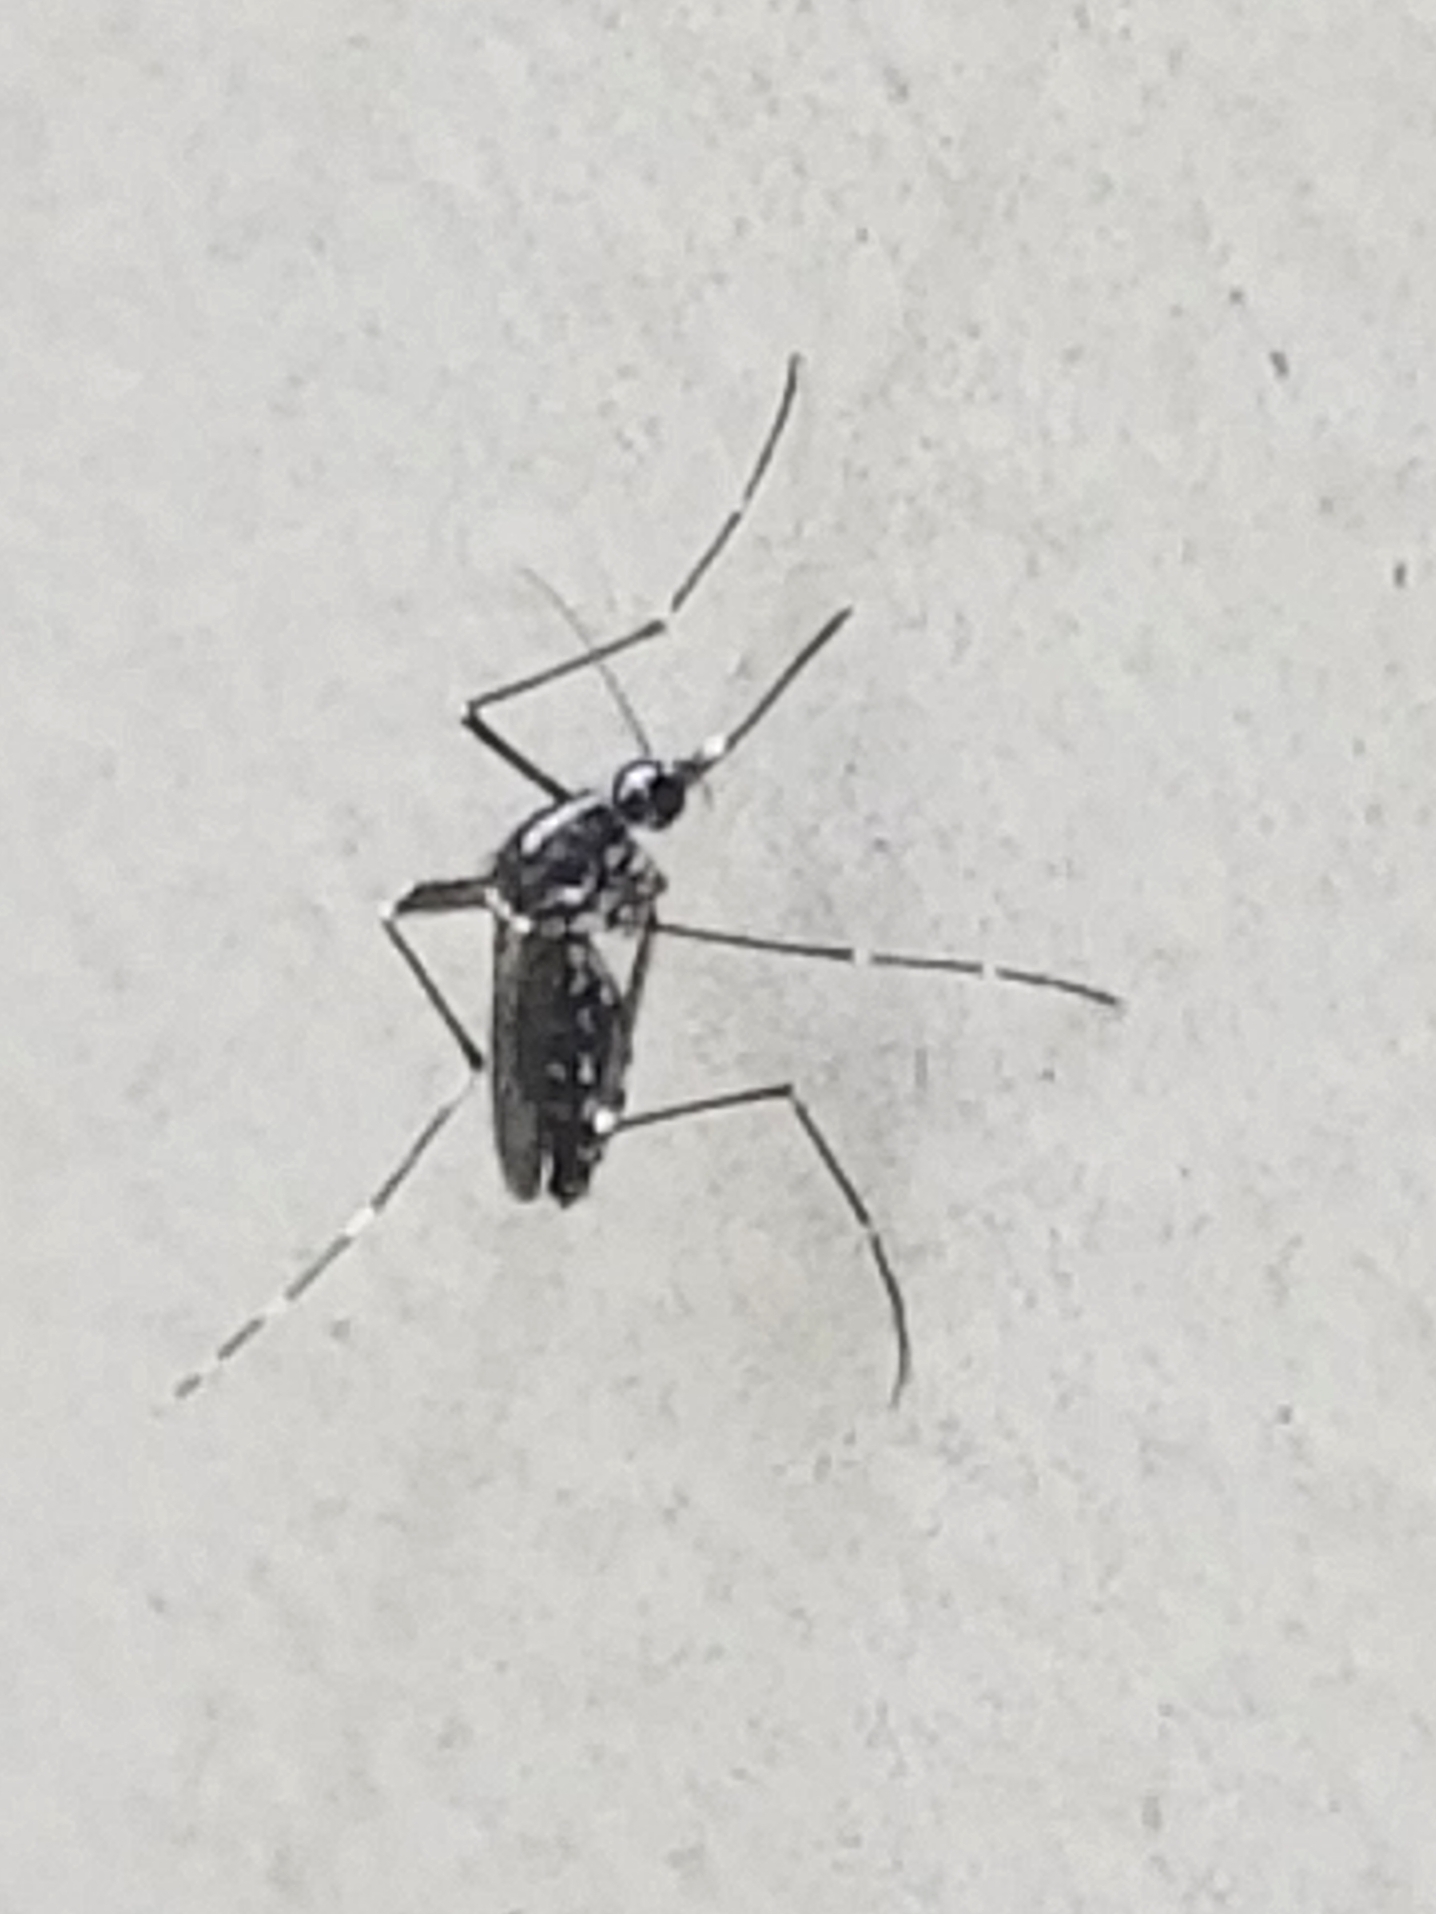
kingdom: Animalia
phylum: Arthropoda
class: Insecta
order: Diptera
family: Culicidae
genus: Aedes
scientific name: Aedes albopictus
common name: Tiger mosquito
